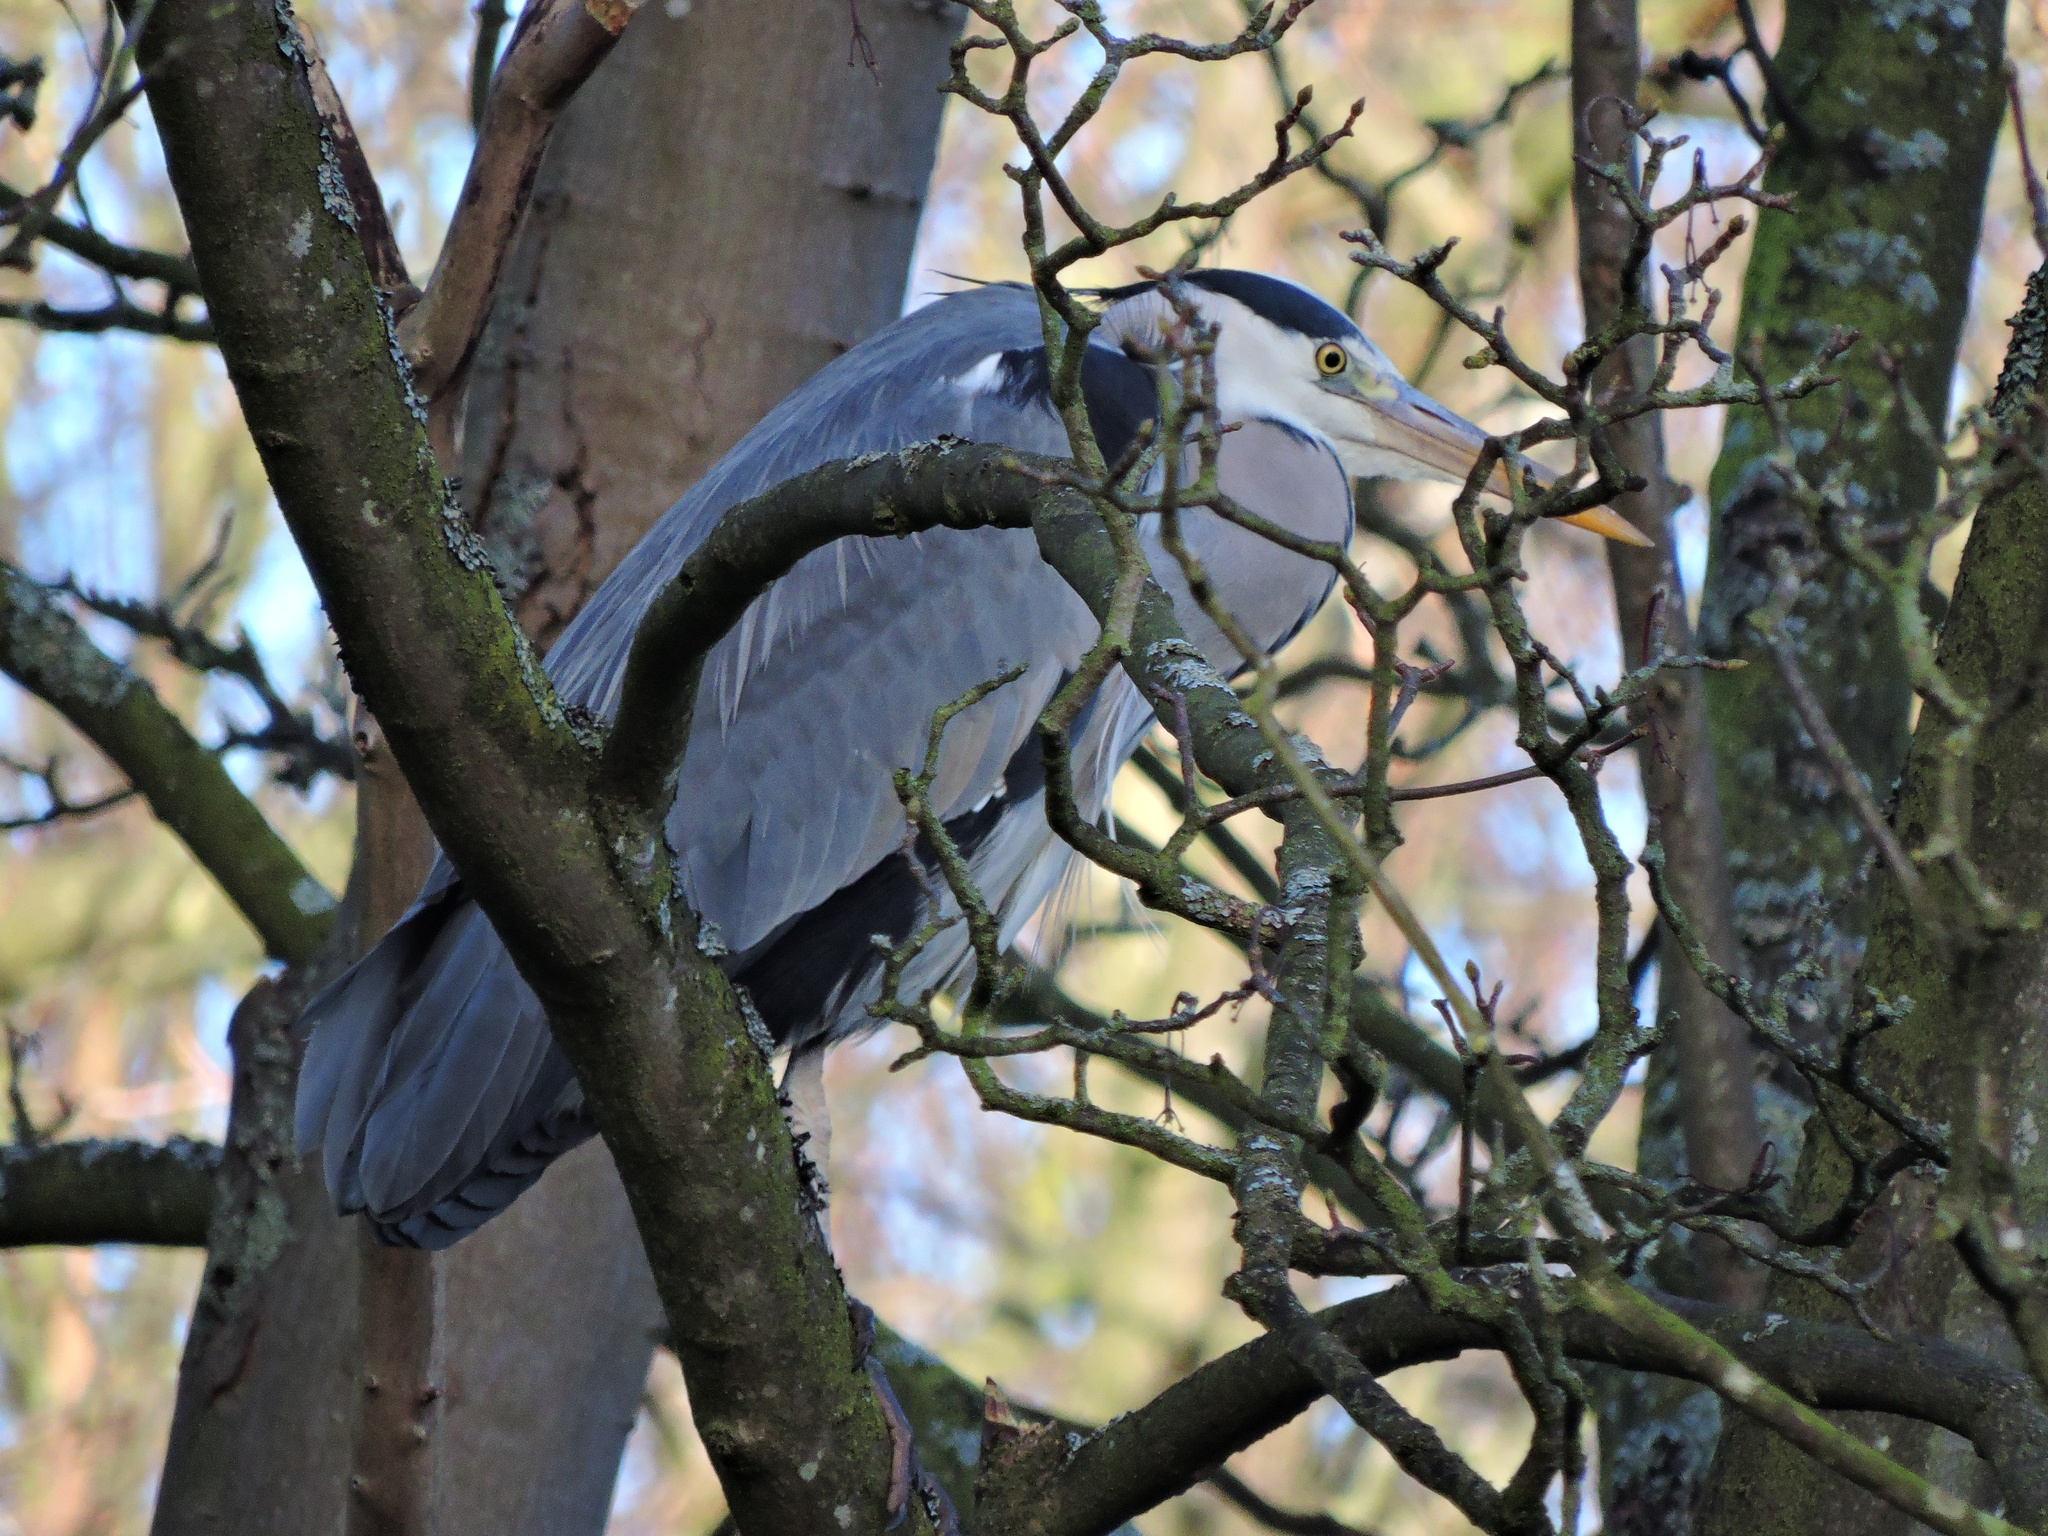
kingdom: Animalia
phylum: Chordata
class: Aves
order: Pelecaniformes
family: Ardeidae
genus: Ardea
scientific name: Ardea cinerea
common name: Grey heron
